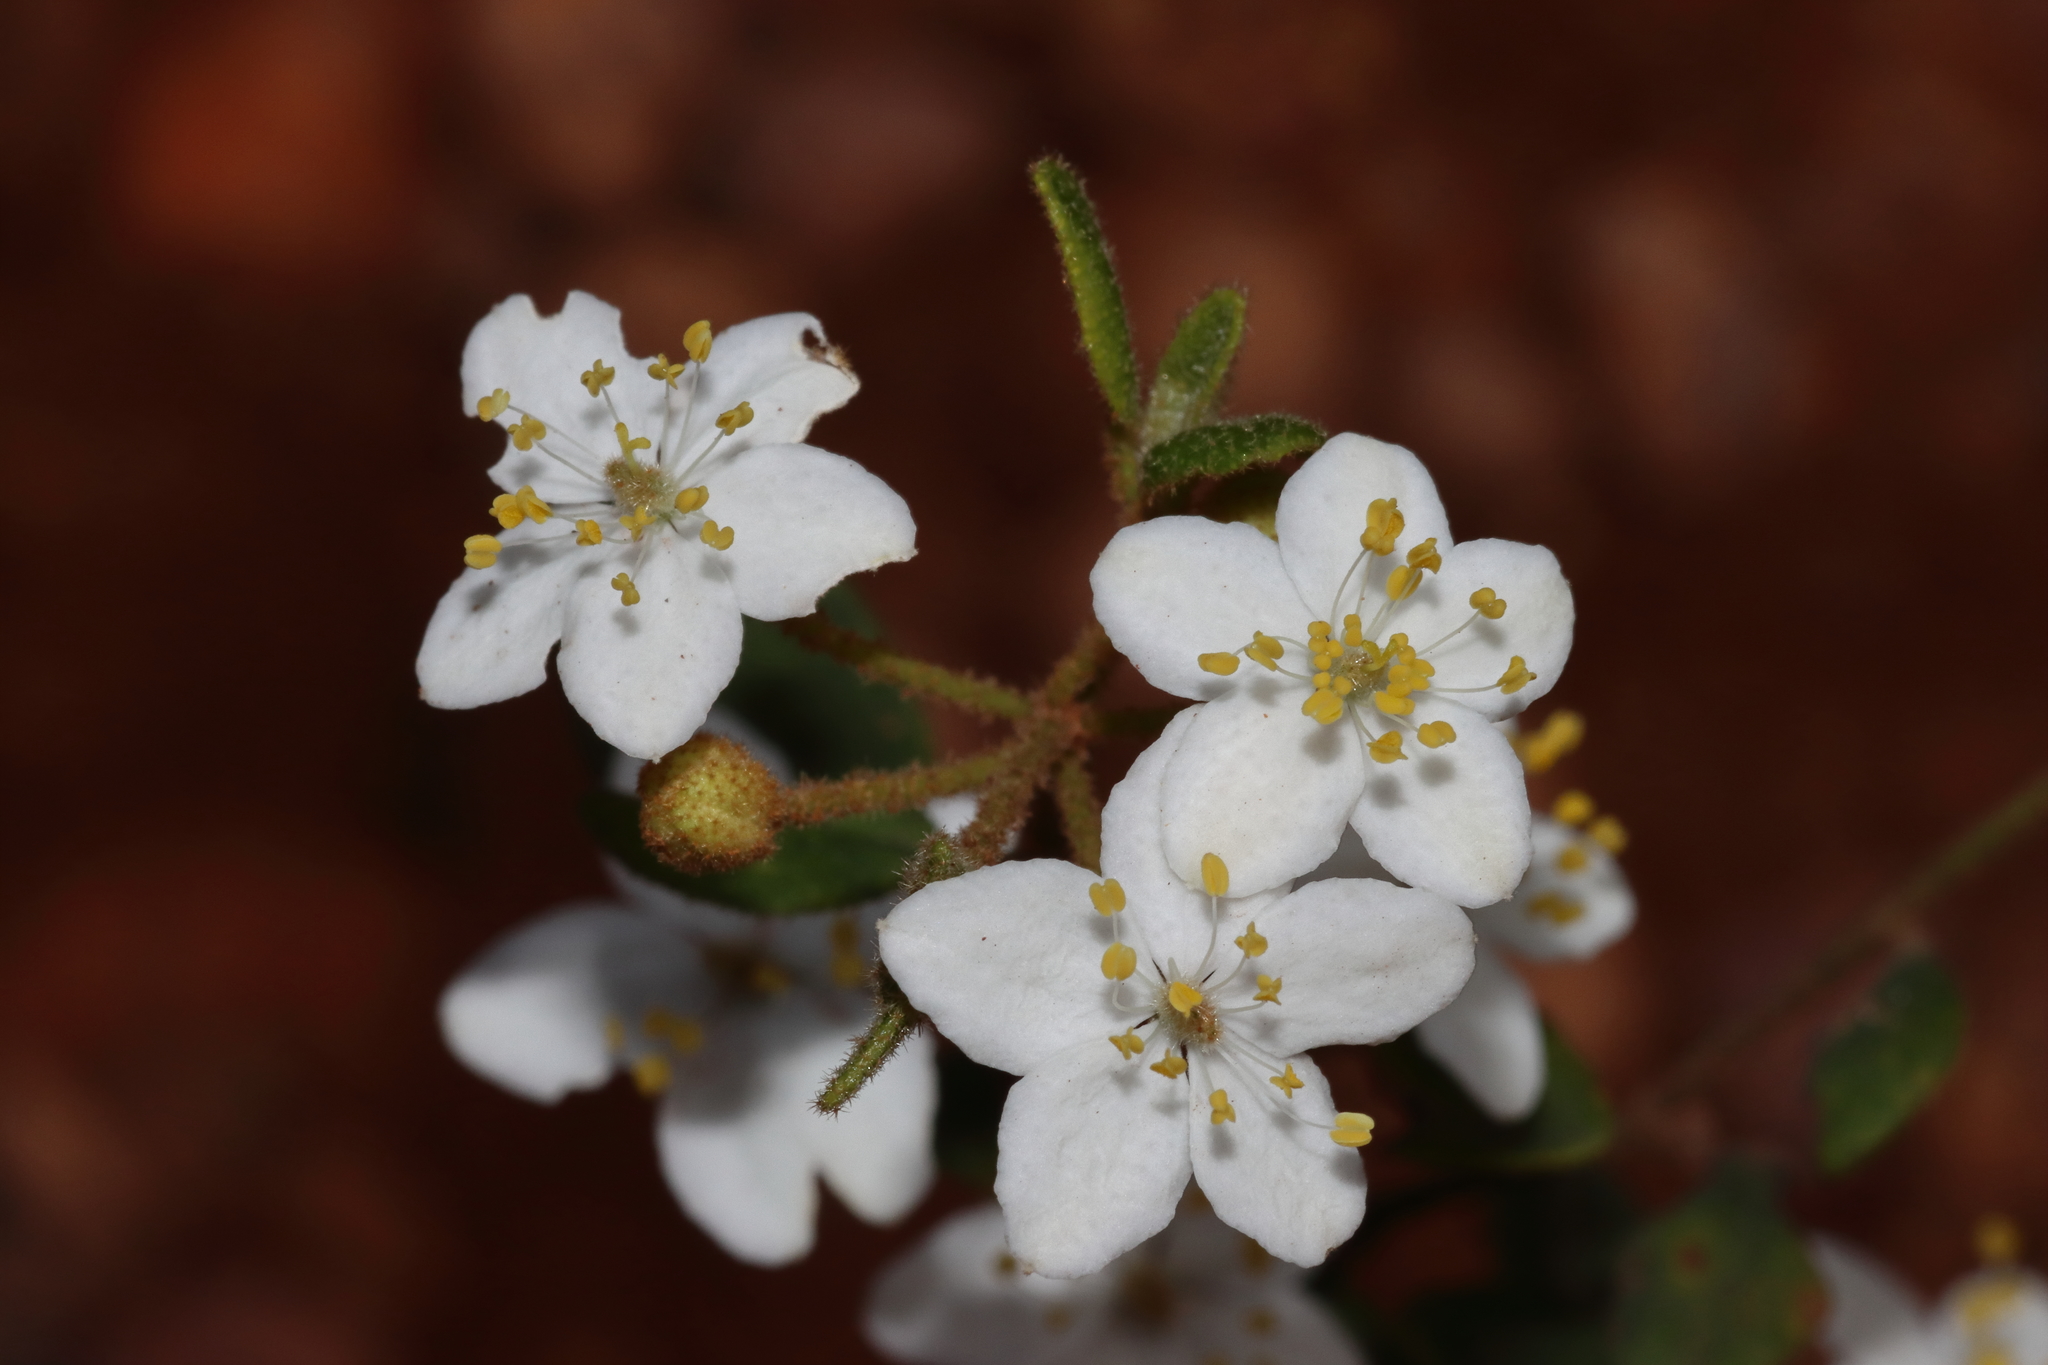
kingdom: Plantae
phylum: Tracheophyta
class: Magnoliopsida
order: Sapindales
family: Rutaceae
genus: Asterolasia
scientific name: Asterolasia pallida
